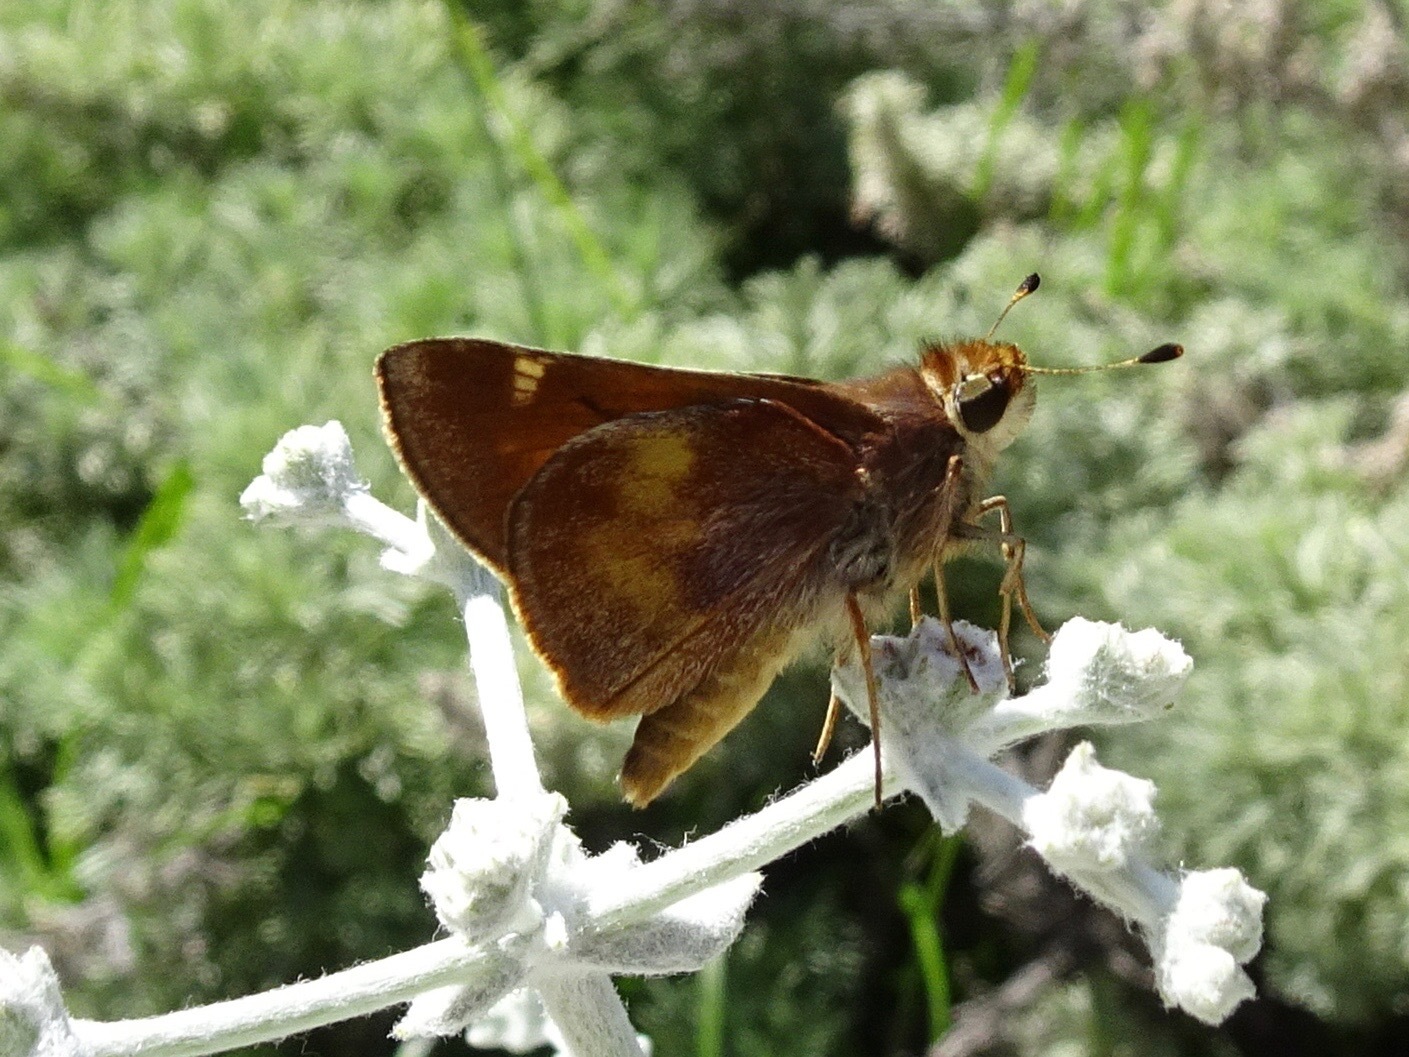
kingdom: Animalia
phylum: Arthropoda
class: Insecta
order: Lepidoptera
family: Hesperiidae
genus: Lon
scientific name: Lon melane
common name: Umber skipper
